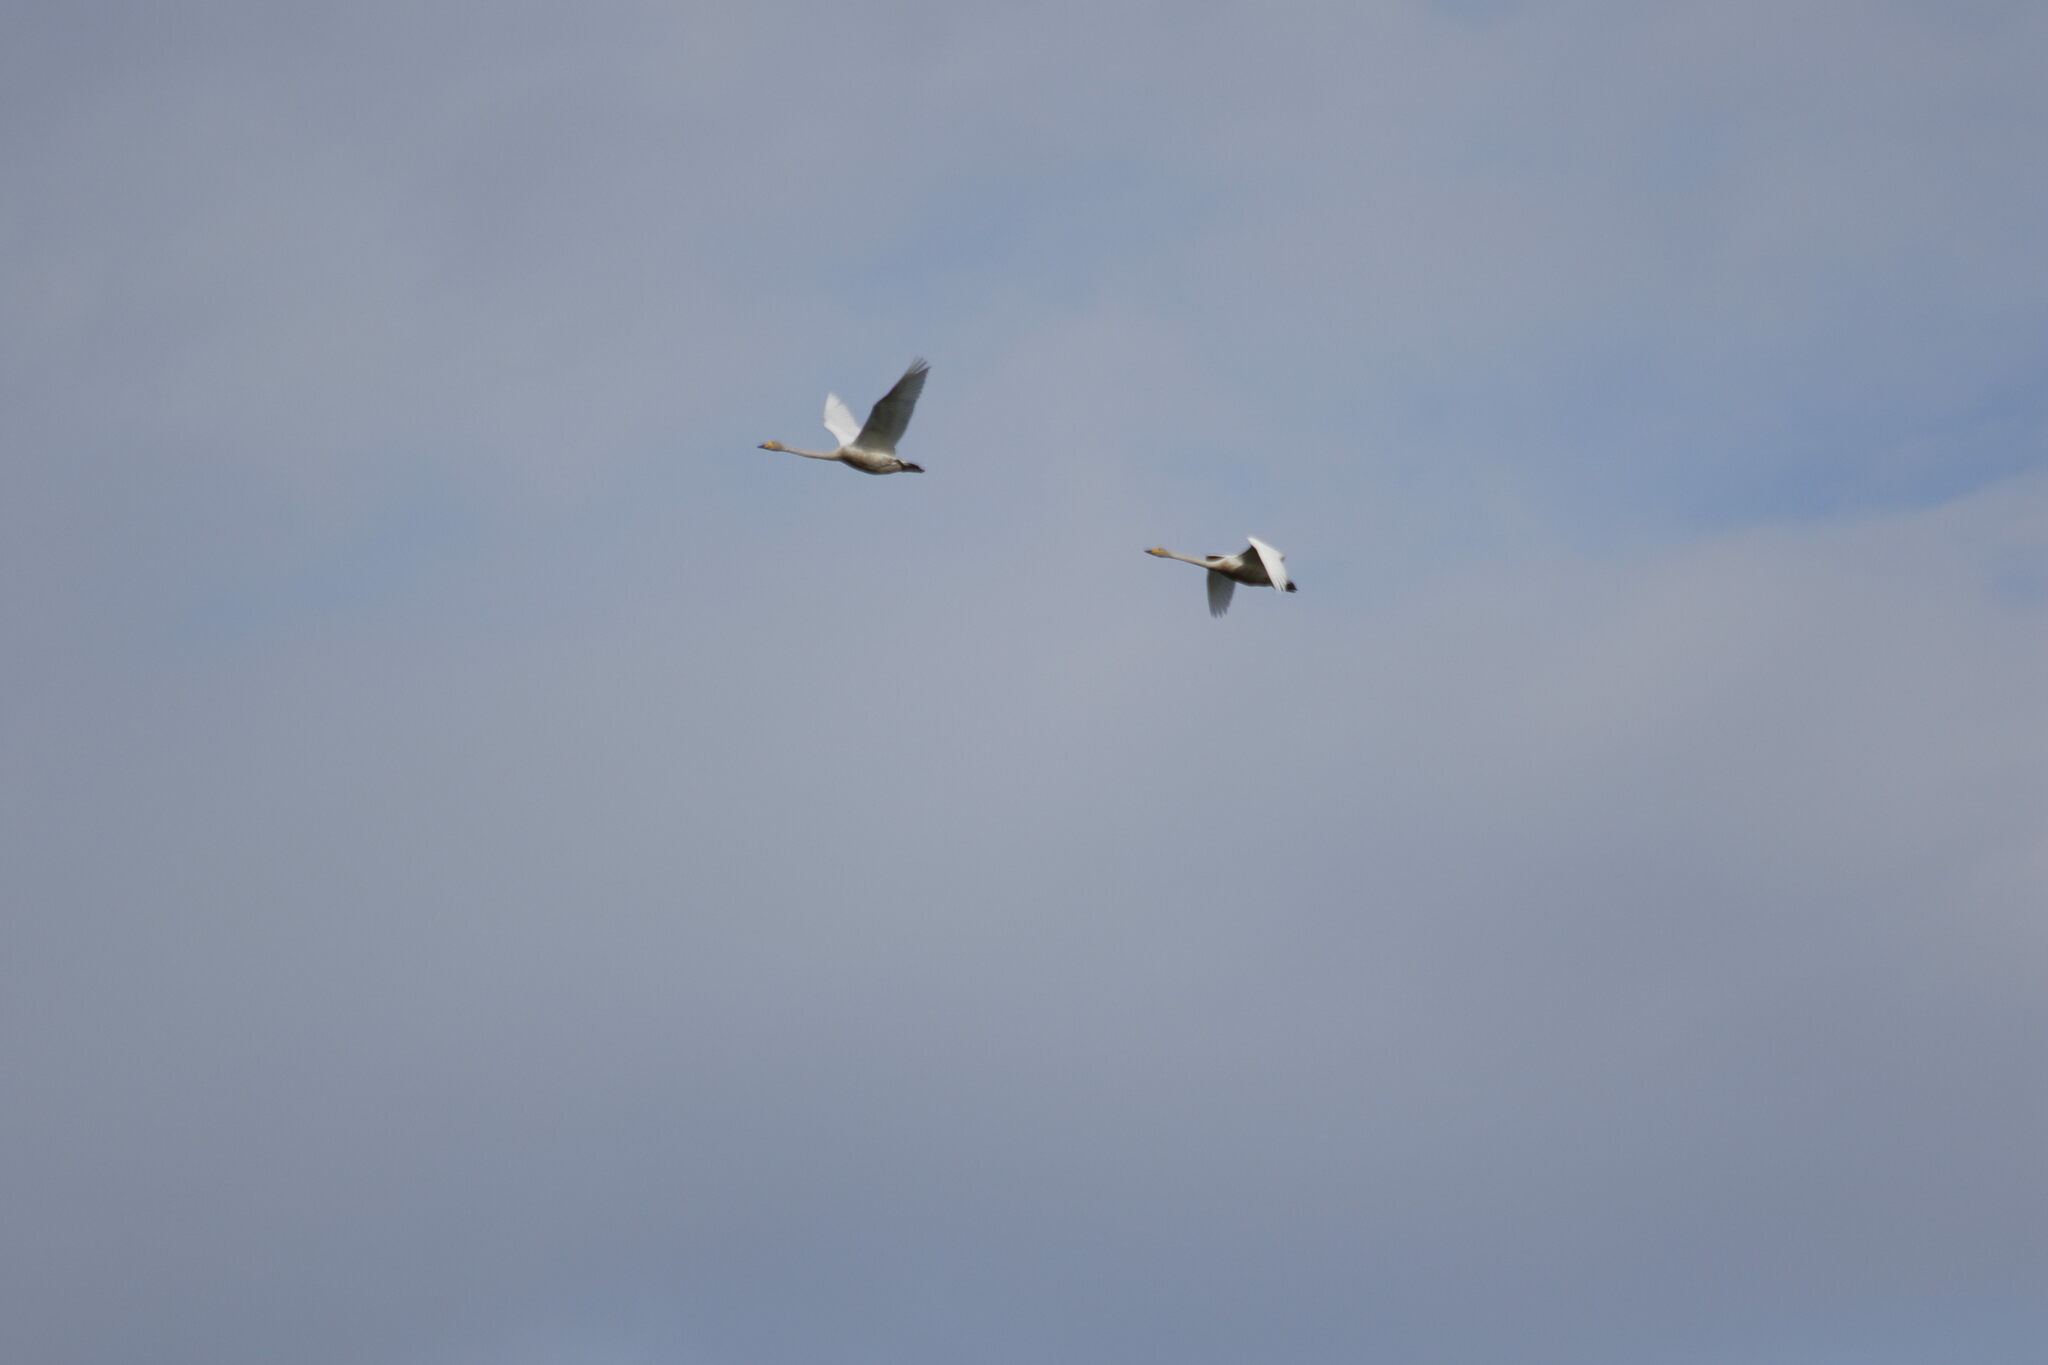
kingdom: Animalia
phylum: Chordata
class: Aves
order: Anseriformes
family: Anatidae
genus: Cygnus
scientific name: Cygnus cygnus
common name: Whooper swan
